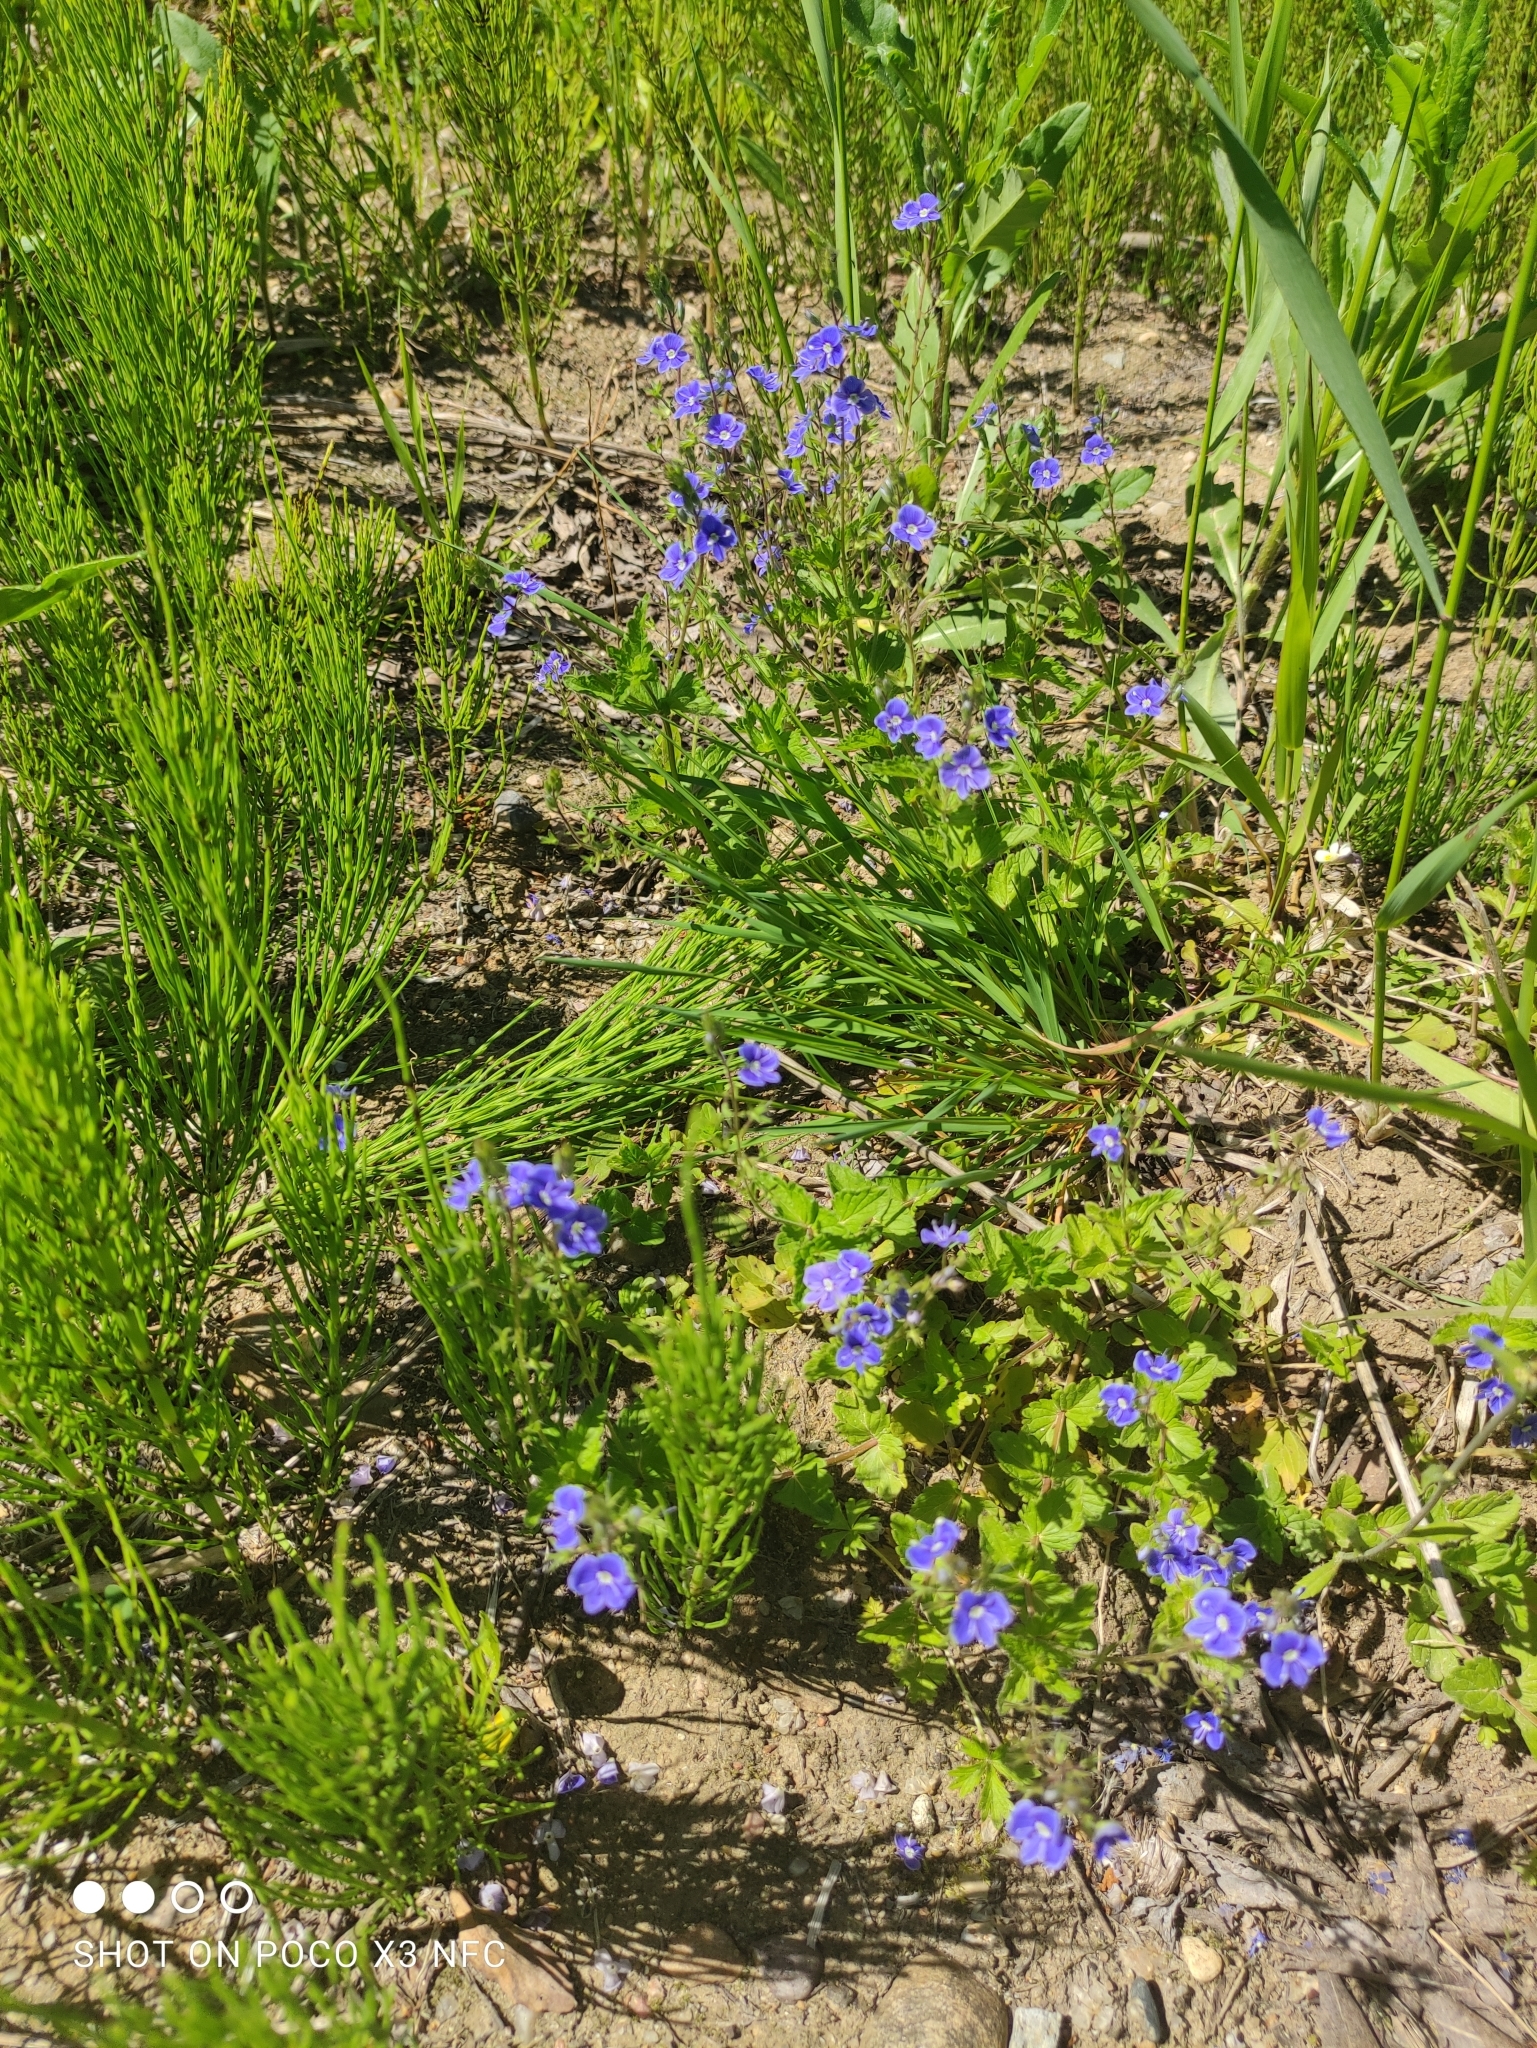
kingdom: Plantae
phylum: Tracheophyta
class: Magnoliopsida
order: Lamiales
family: Plantaginaceae
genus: Veronica
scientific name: Veronica chamaedrys
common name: Germander speedwell
